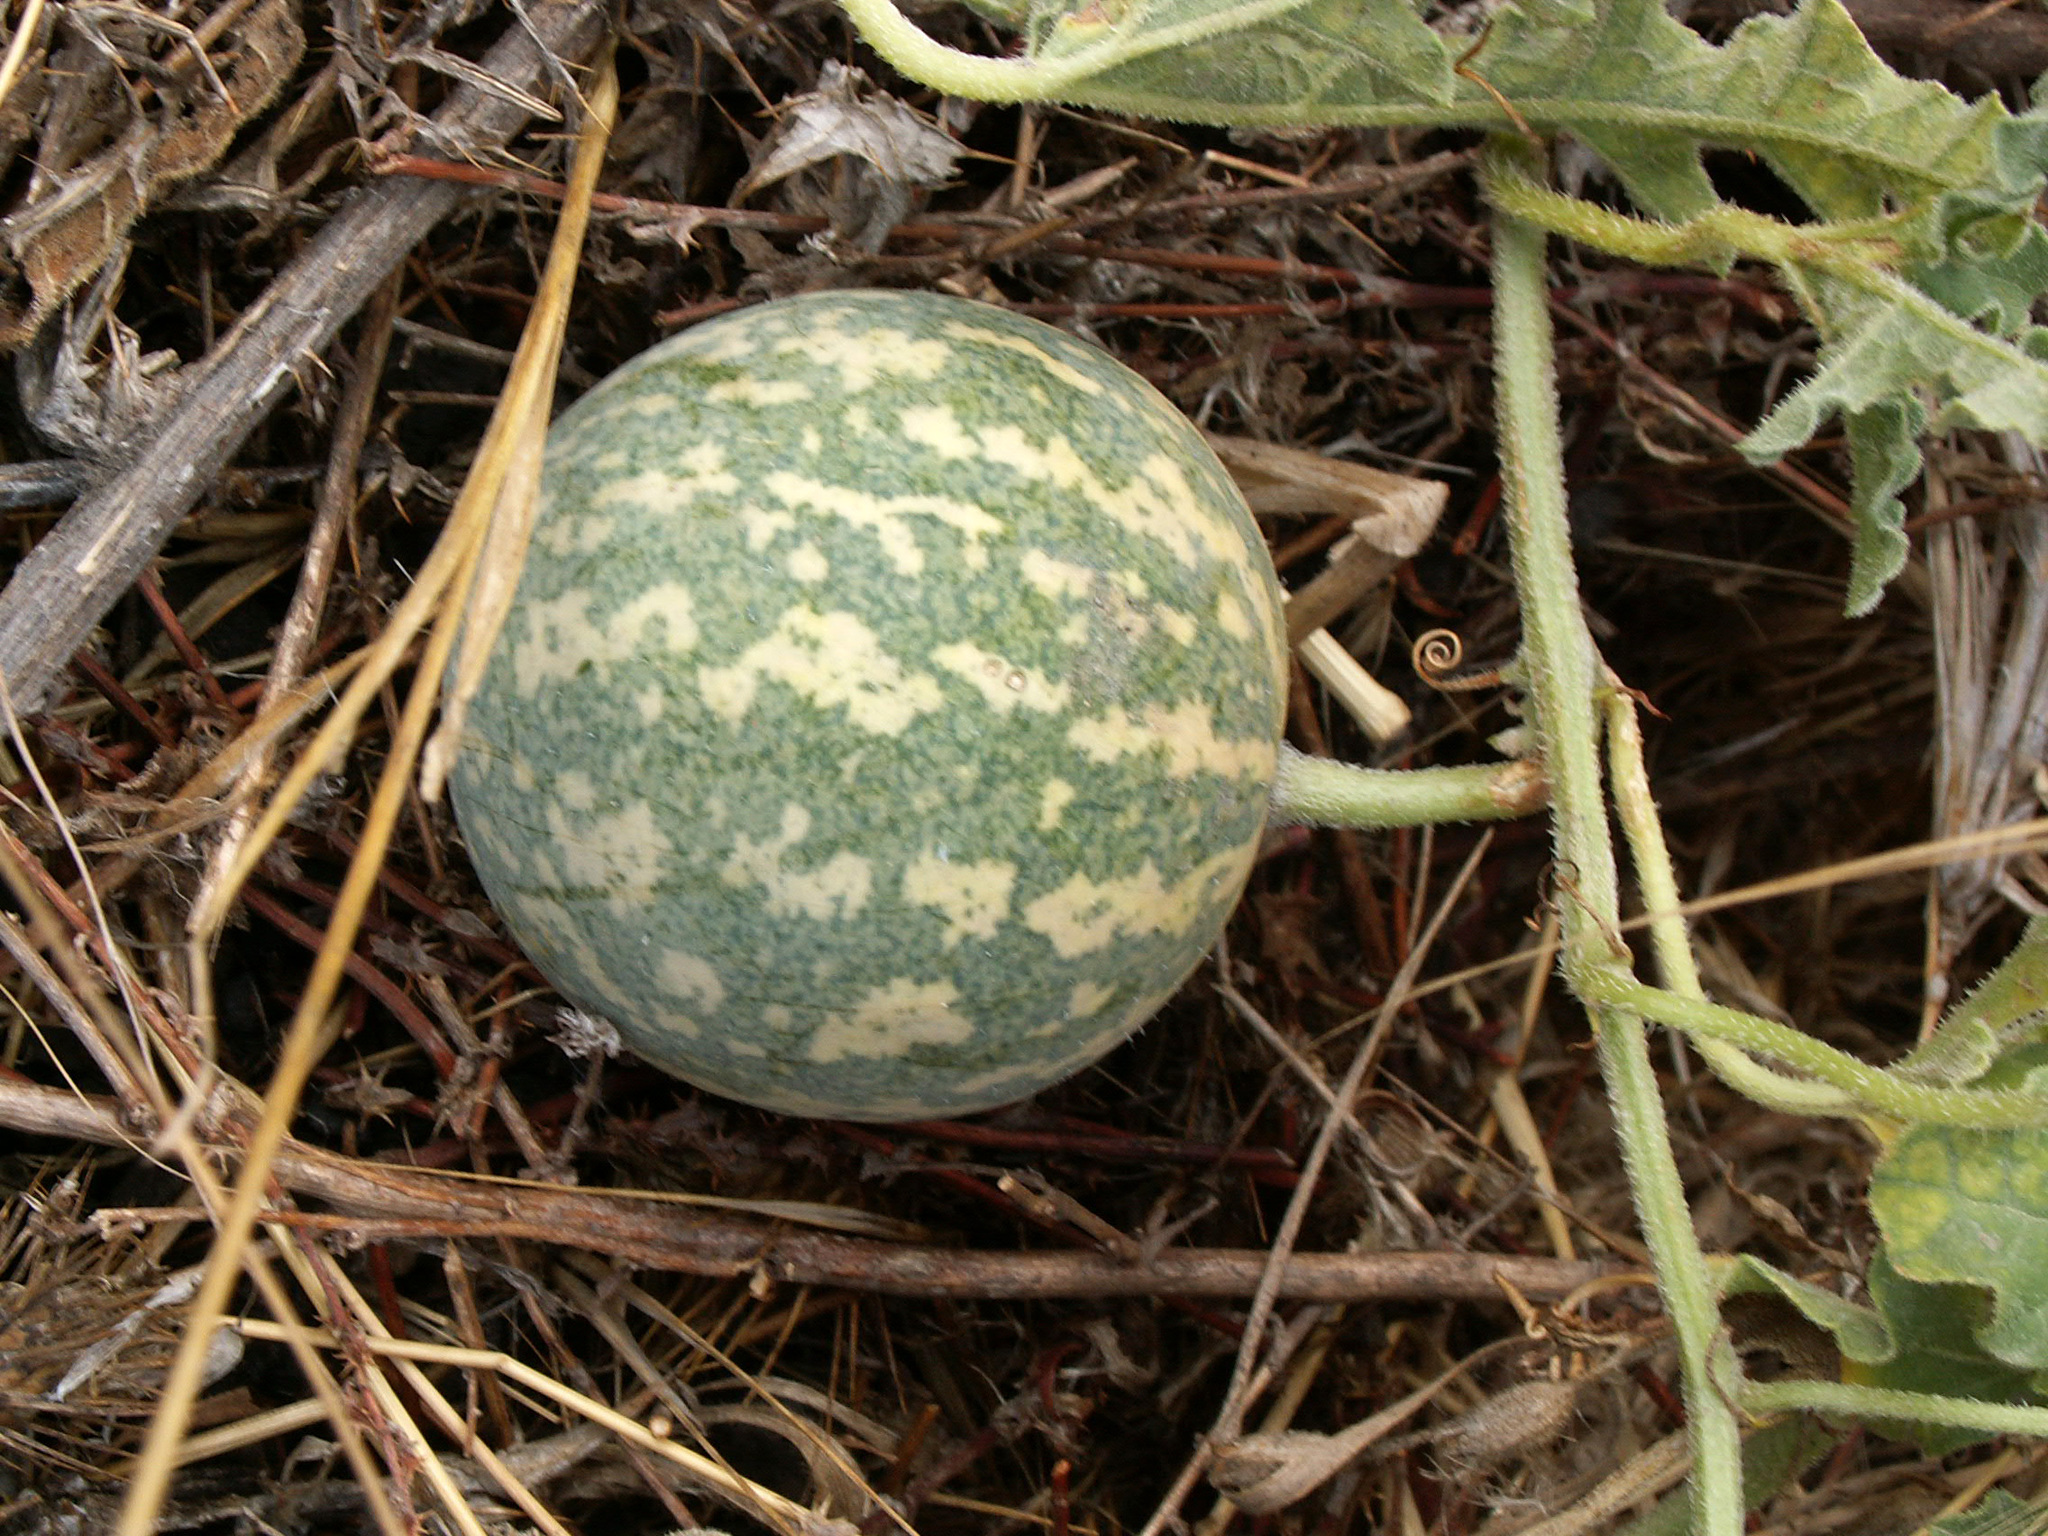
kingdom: Plantae
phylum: Tracheophyta
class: Magnoliopsida
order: Cucurbitales
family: Cucurbitaceae
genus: Citrullus
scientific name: Citrullus colocynthis
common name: Colocynth
